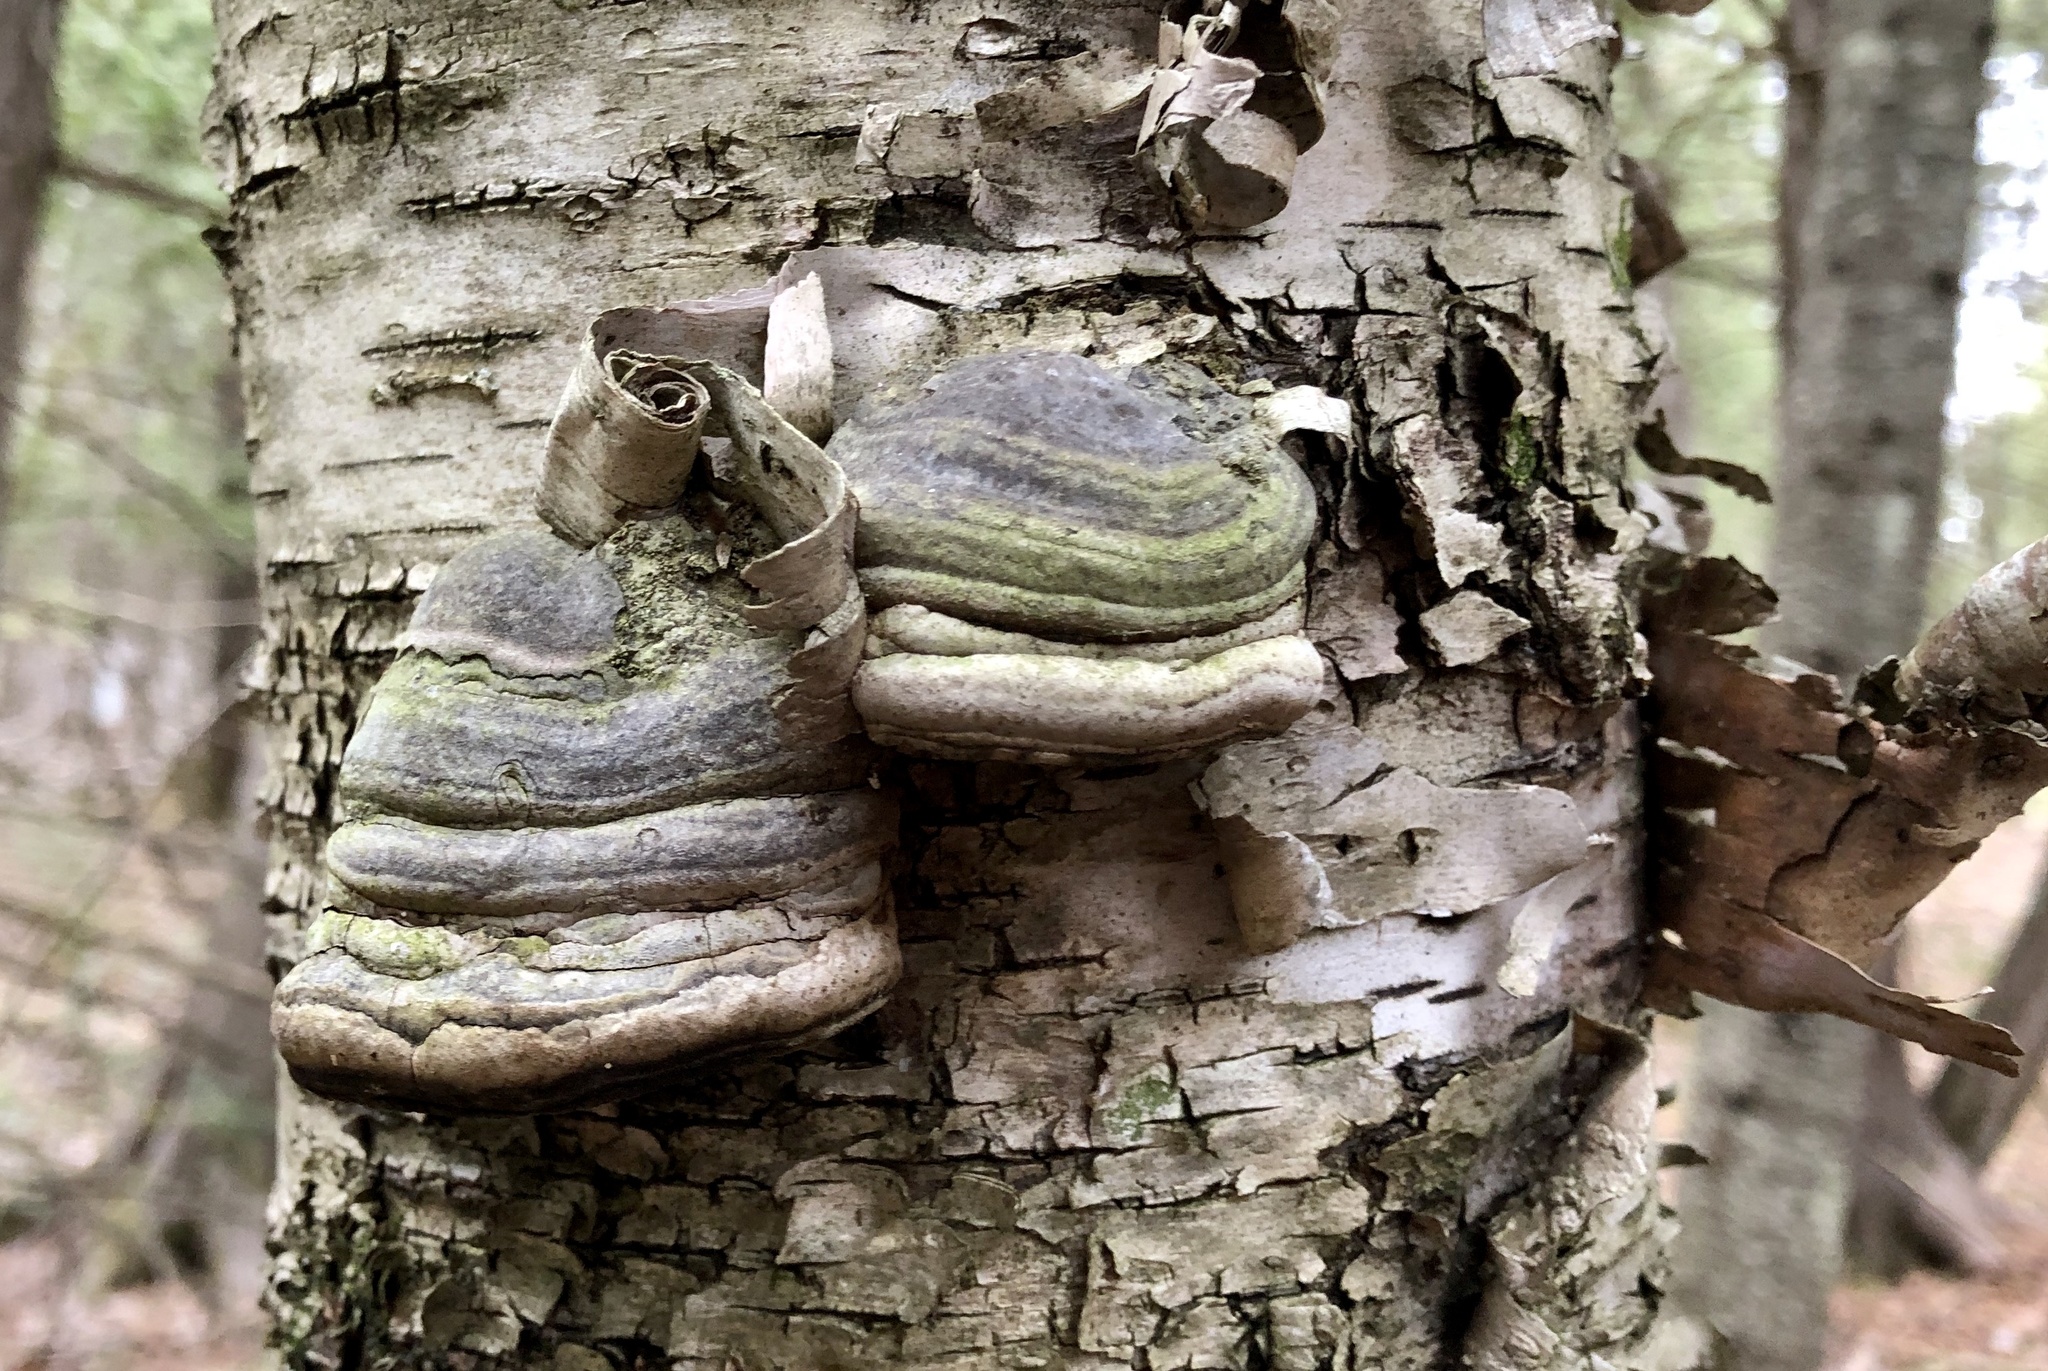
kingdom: Fungi
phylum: Basidiomycota
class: Agaricomycetes
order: Polyporales
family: Polyporaceae
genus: Fomes
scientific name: Fomes fomentarius
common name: Hoof fungus
